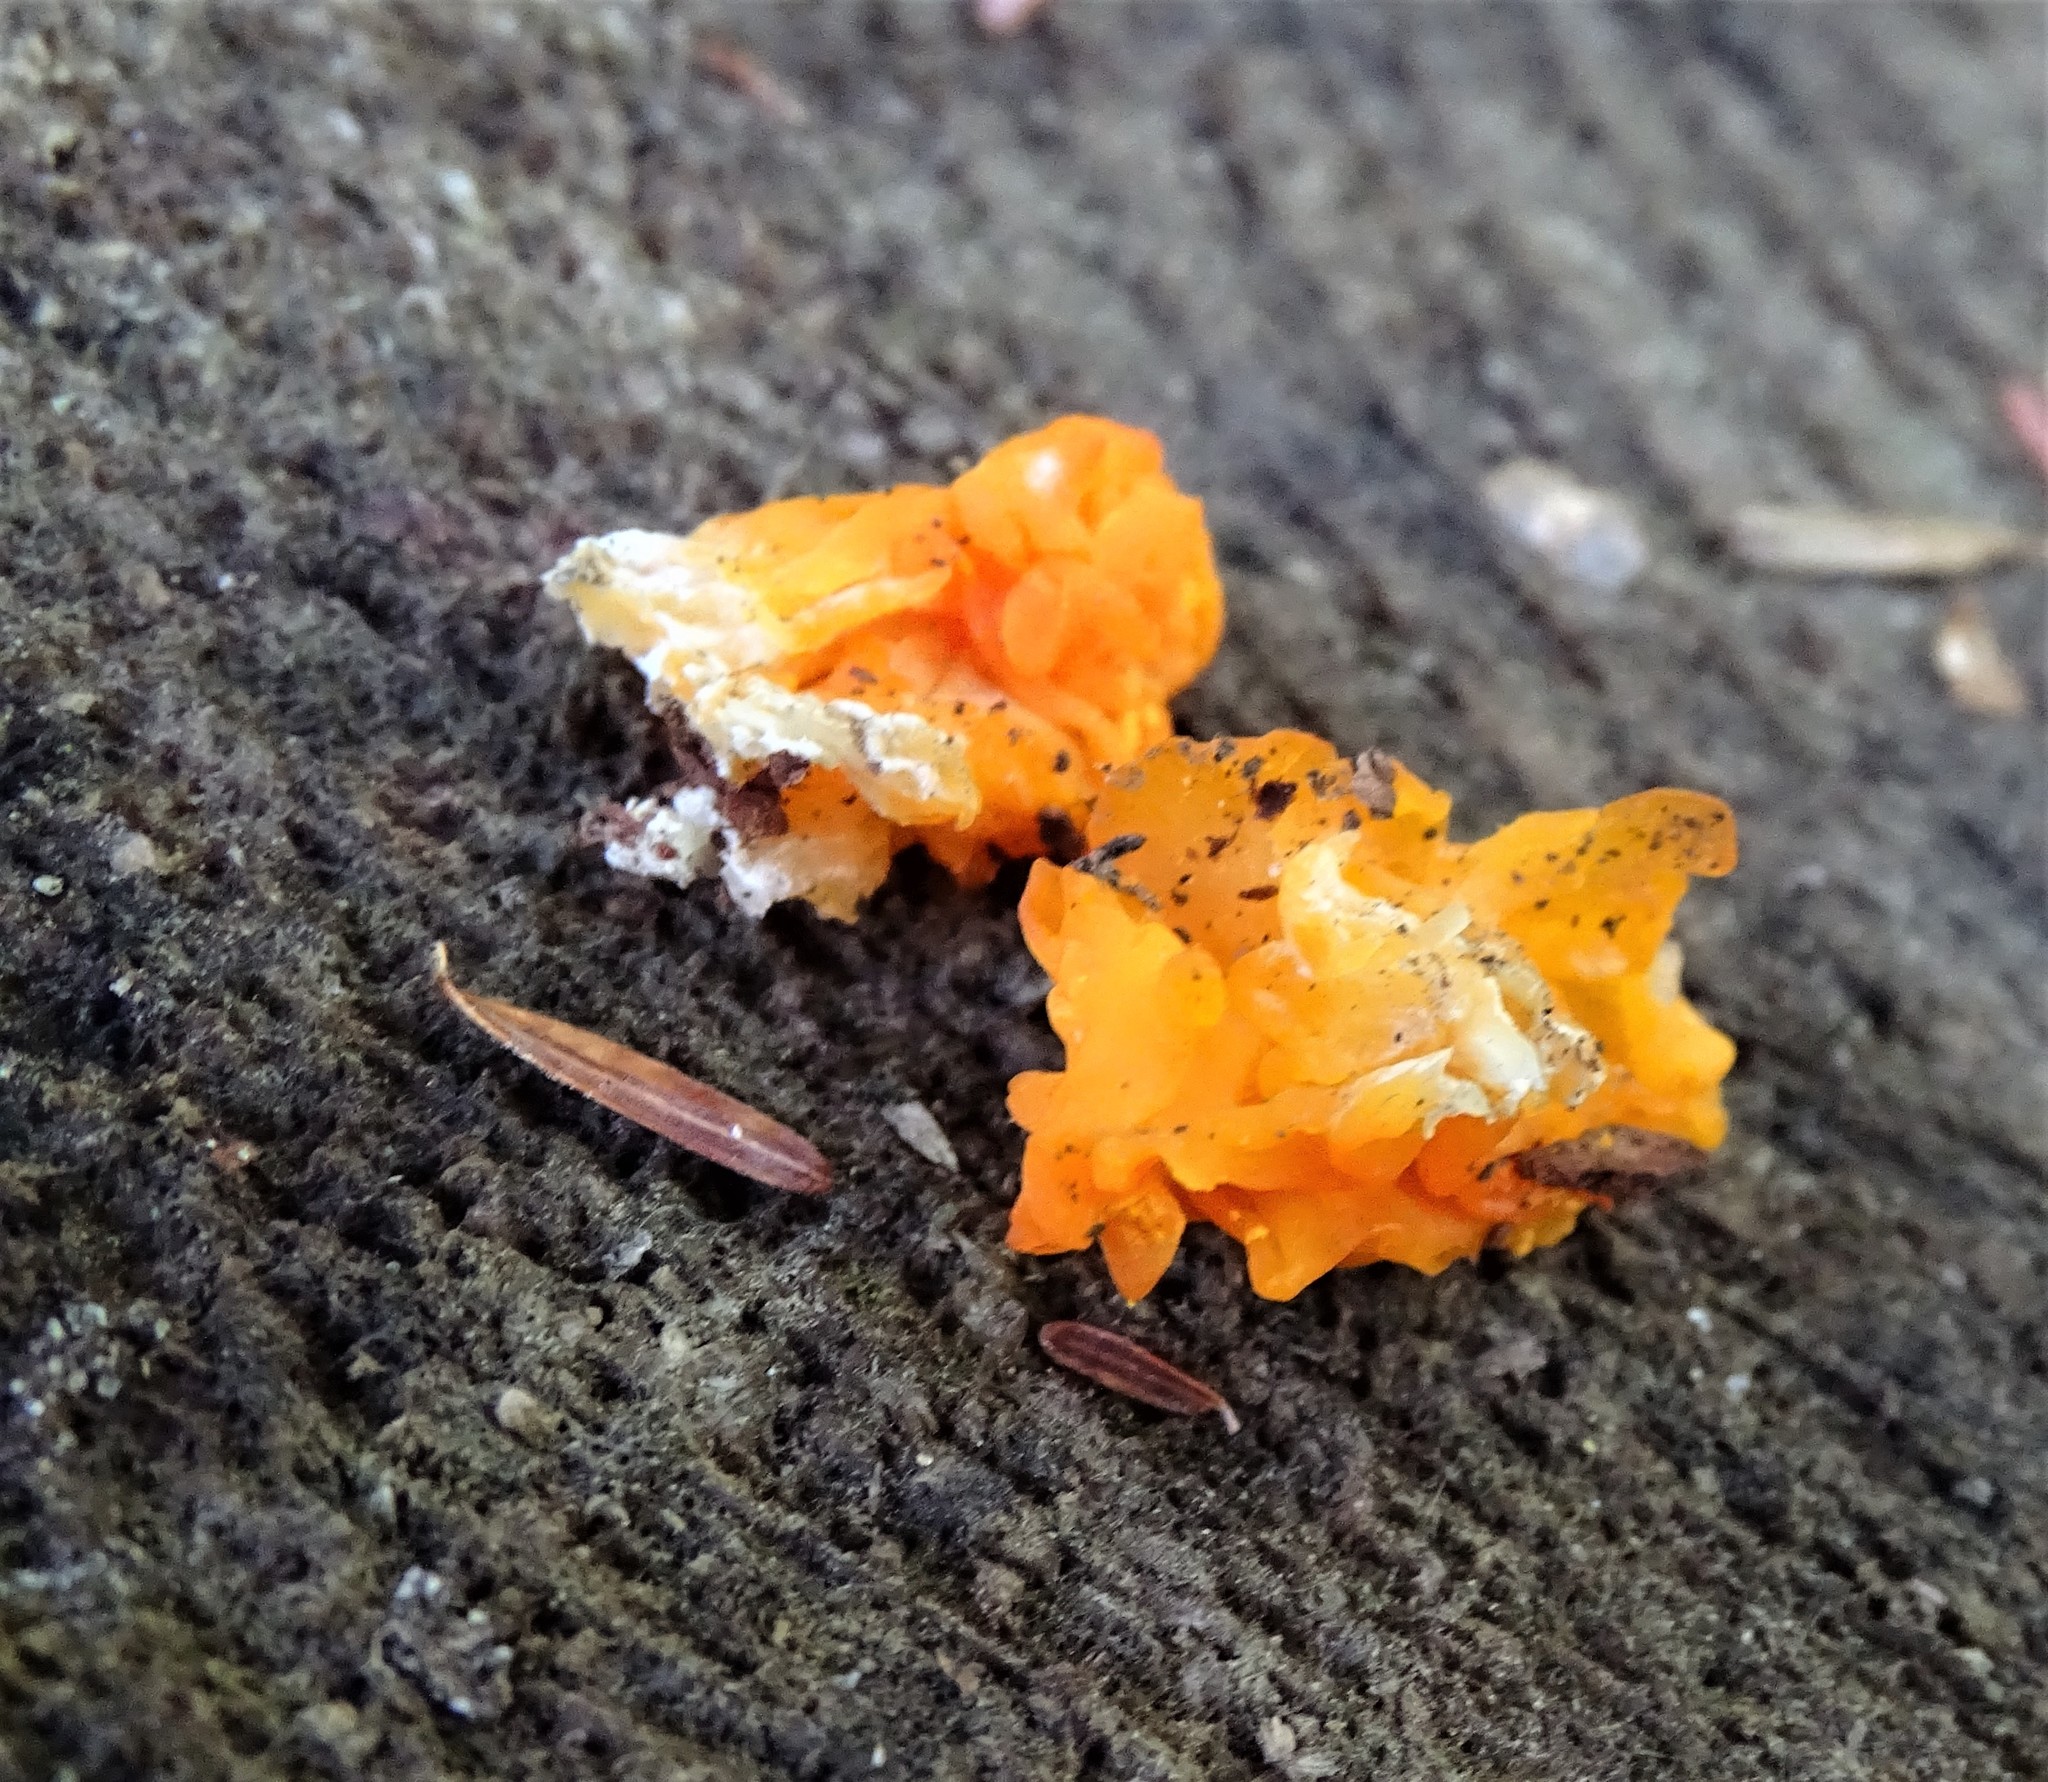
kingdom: Fungi
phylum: Basidiomycota
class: Dacrymycetes
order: Dacrymycetales
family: Dacrymycetaceae
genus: Dacrymyces
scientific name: Dacrymyces chrysospermus
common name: Orange jelly spot
